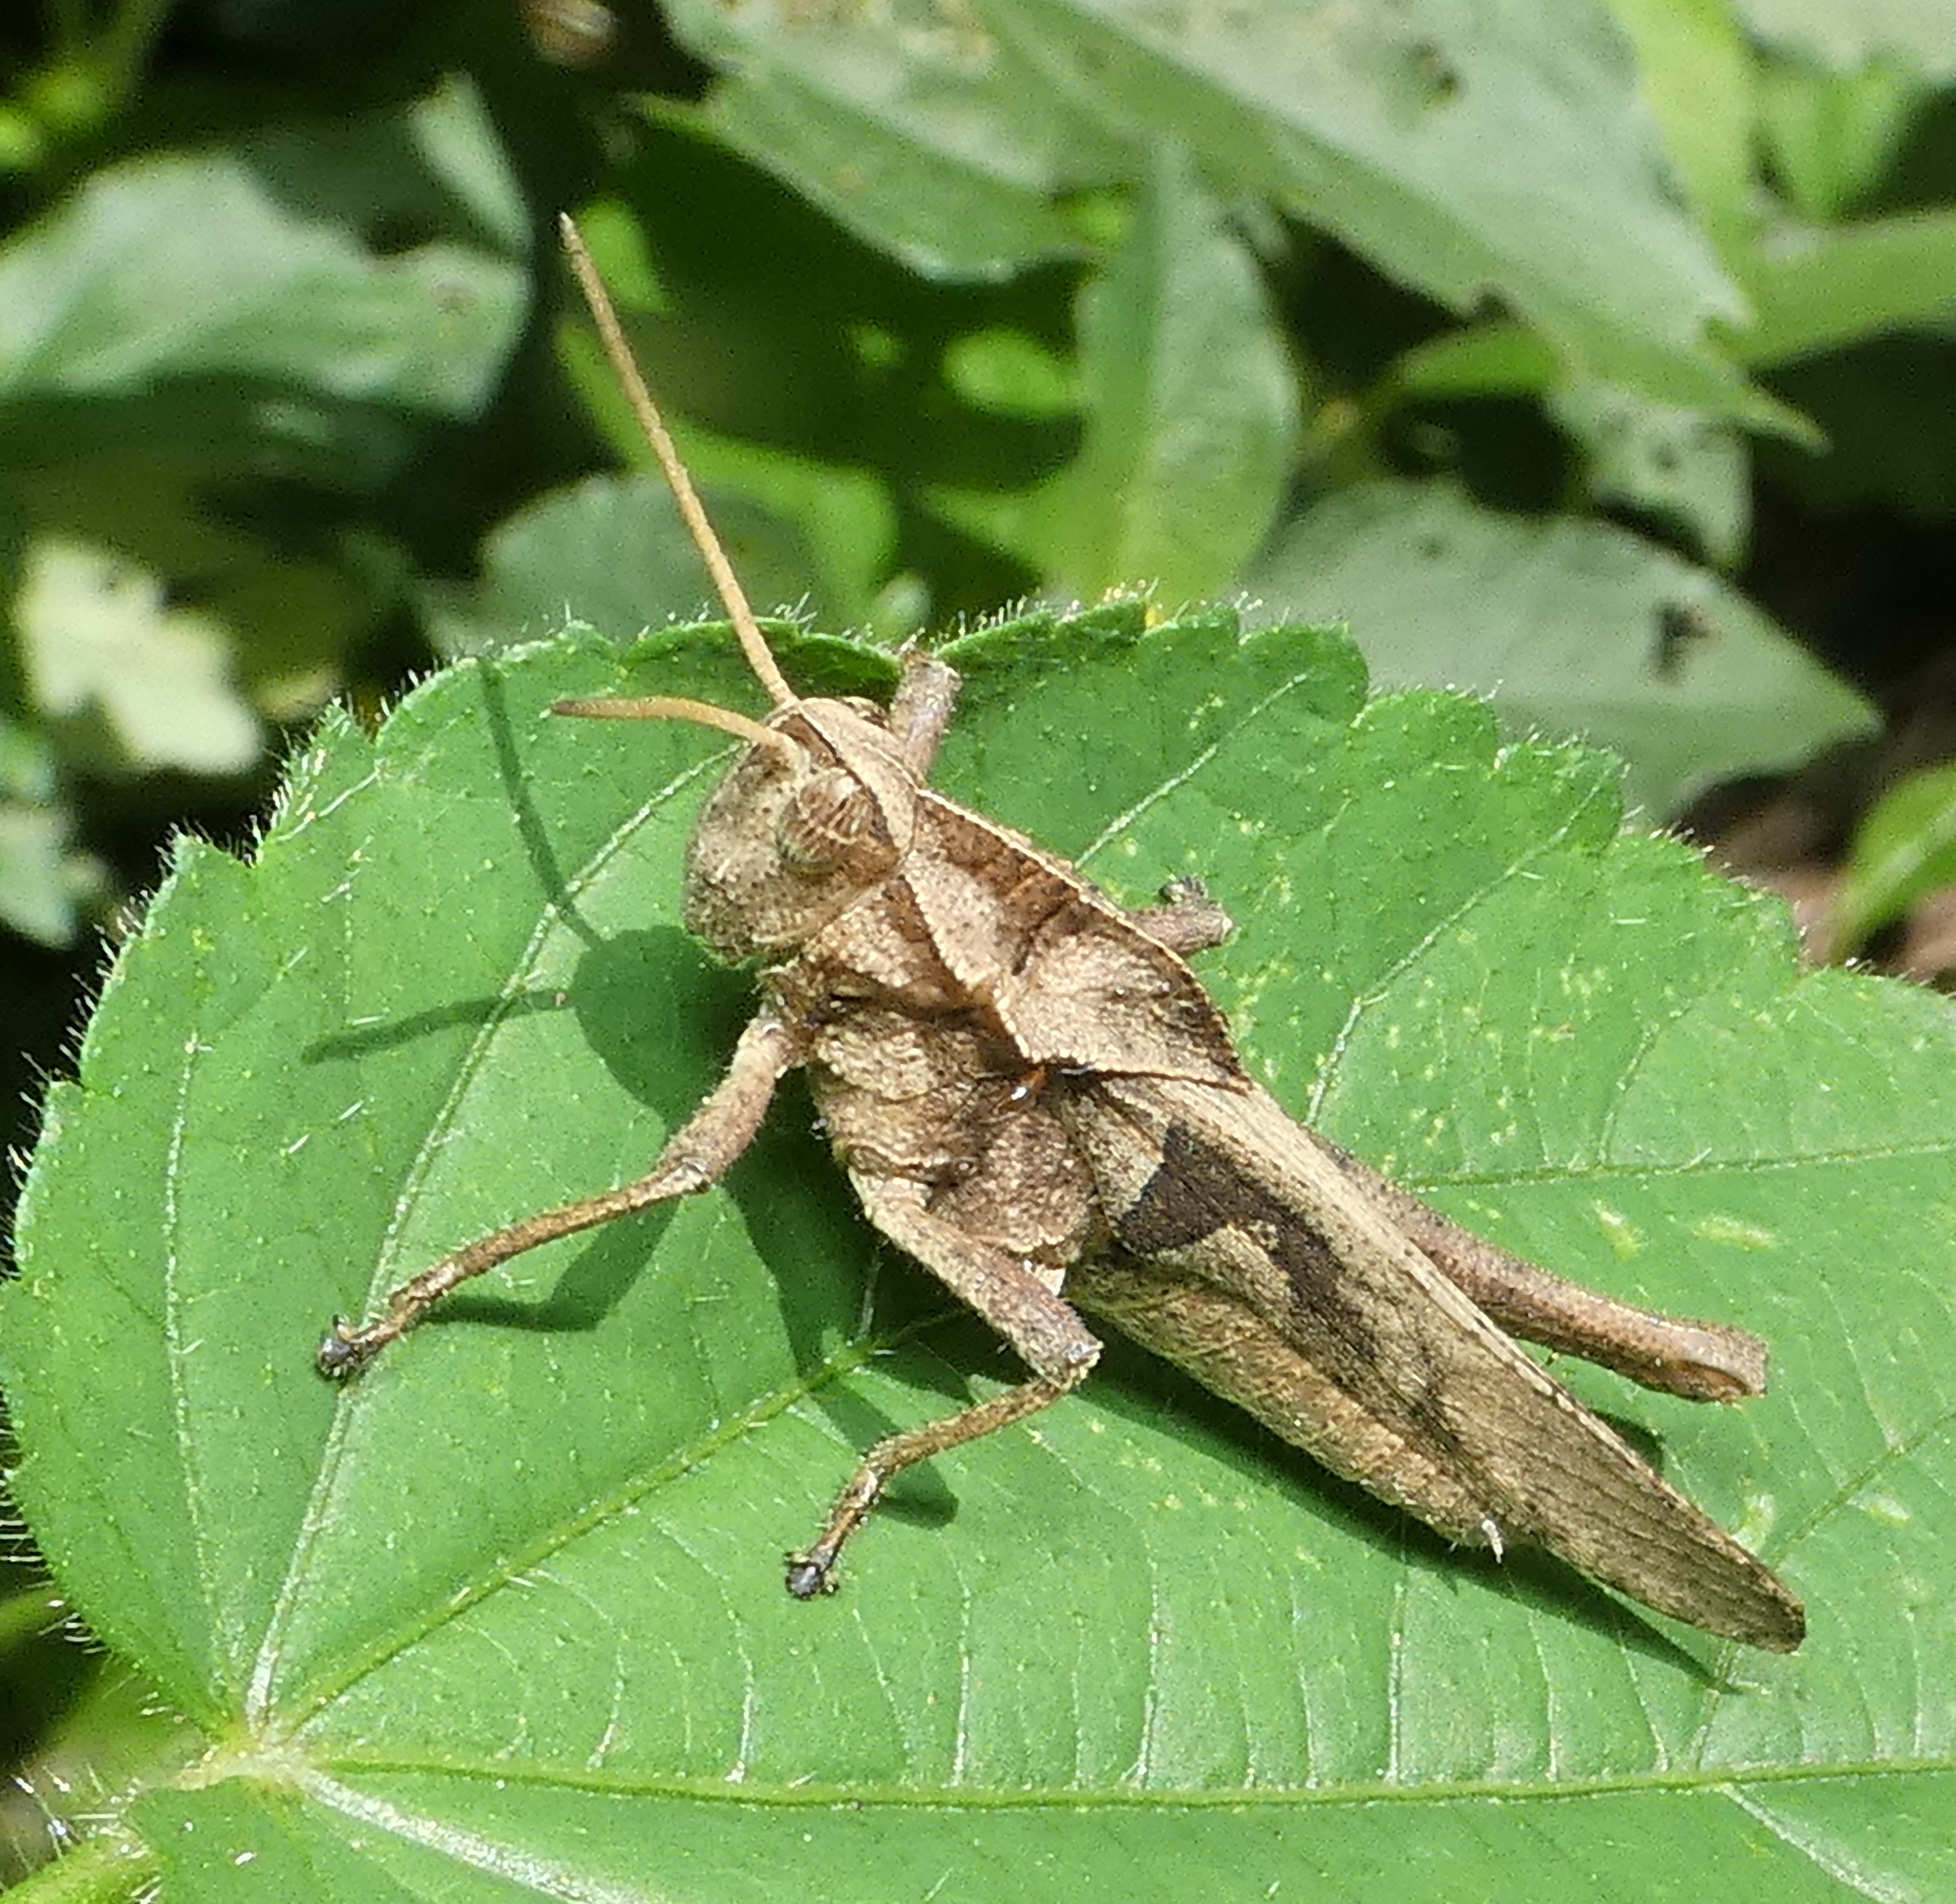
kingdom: Animalia
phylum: Arthropoda
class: Insecta
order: Orthoptera
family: Romaleidae
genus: Xyleus
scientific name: Xyleus discoideus
